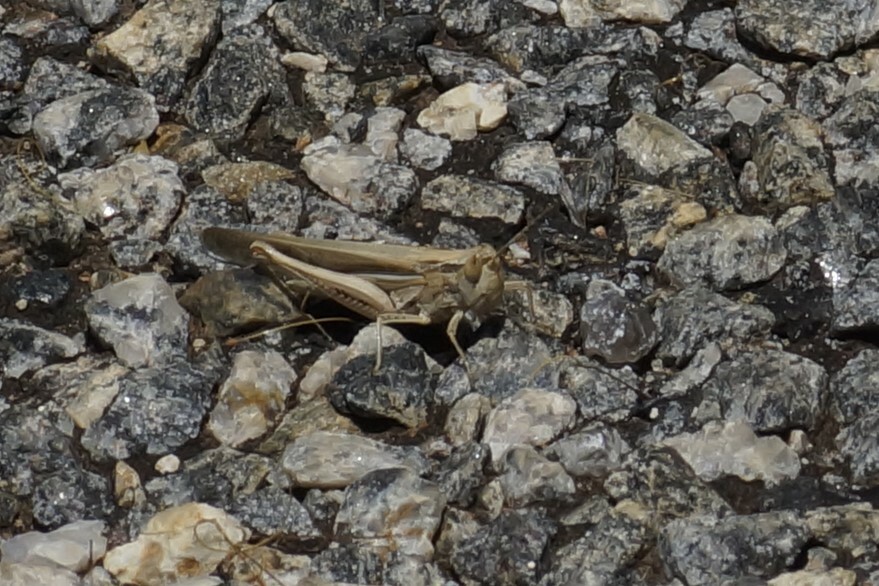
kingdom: Animalia
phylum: Arthropoda
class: Insecta
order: Orthoptera
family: Acrididae
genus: Aiolopus
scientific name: Aiolopus thalassinus
